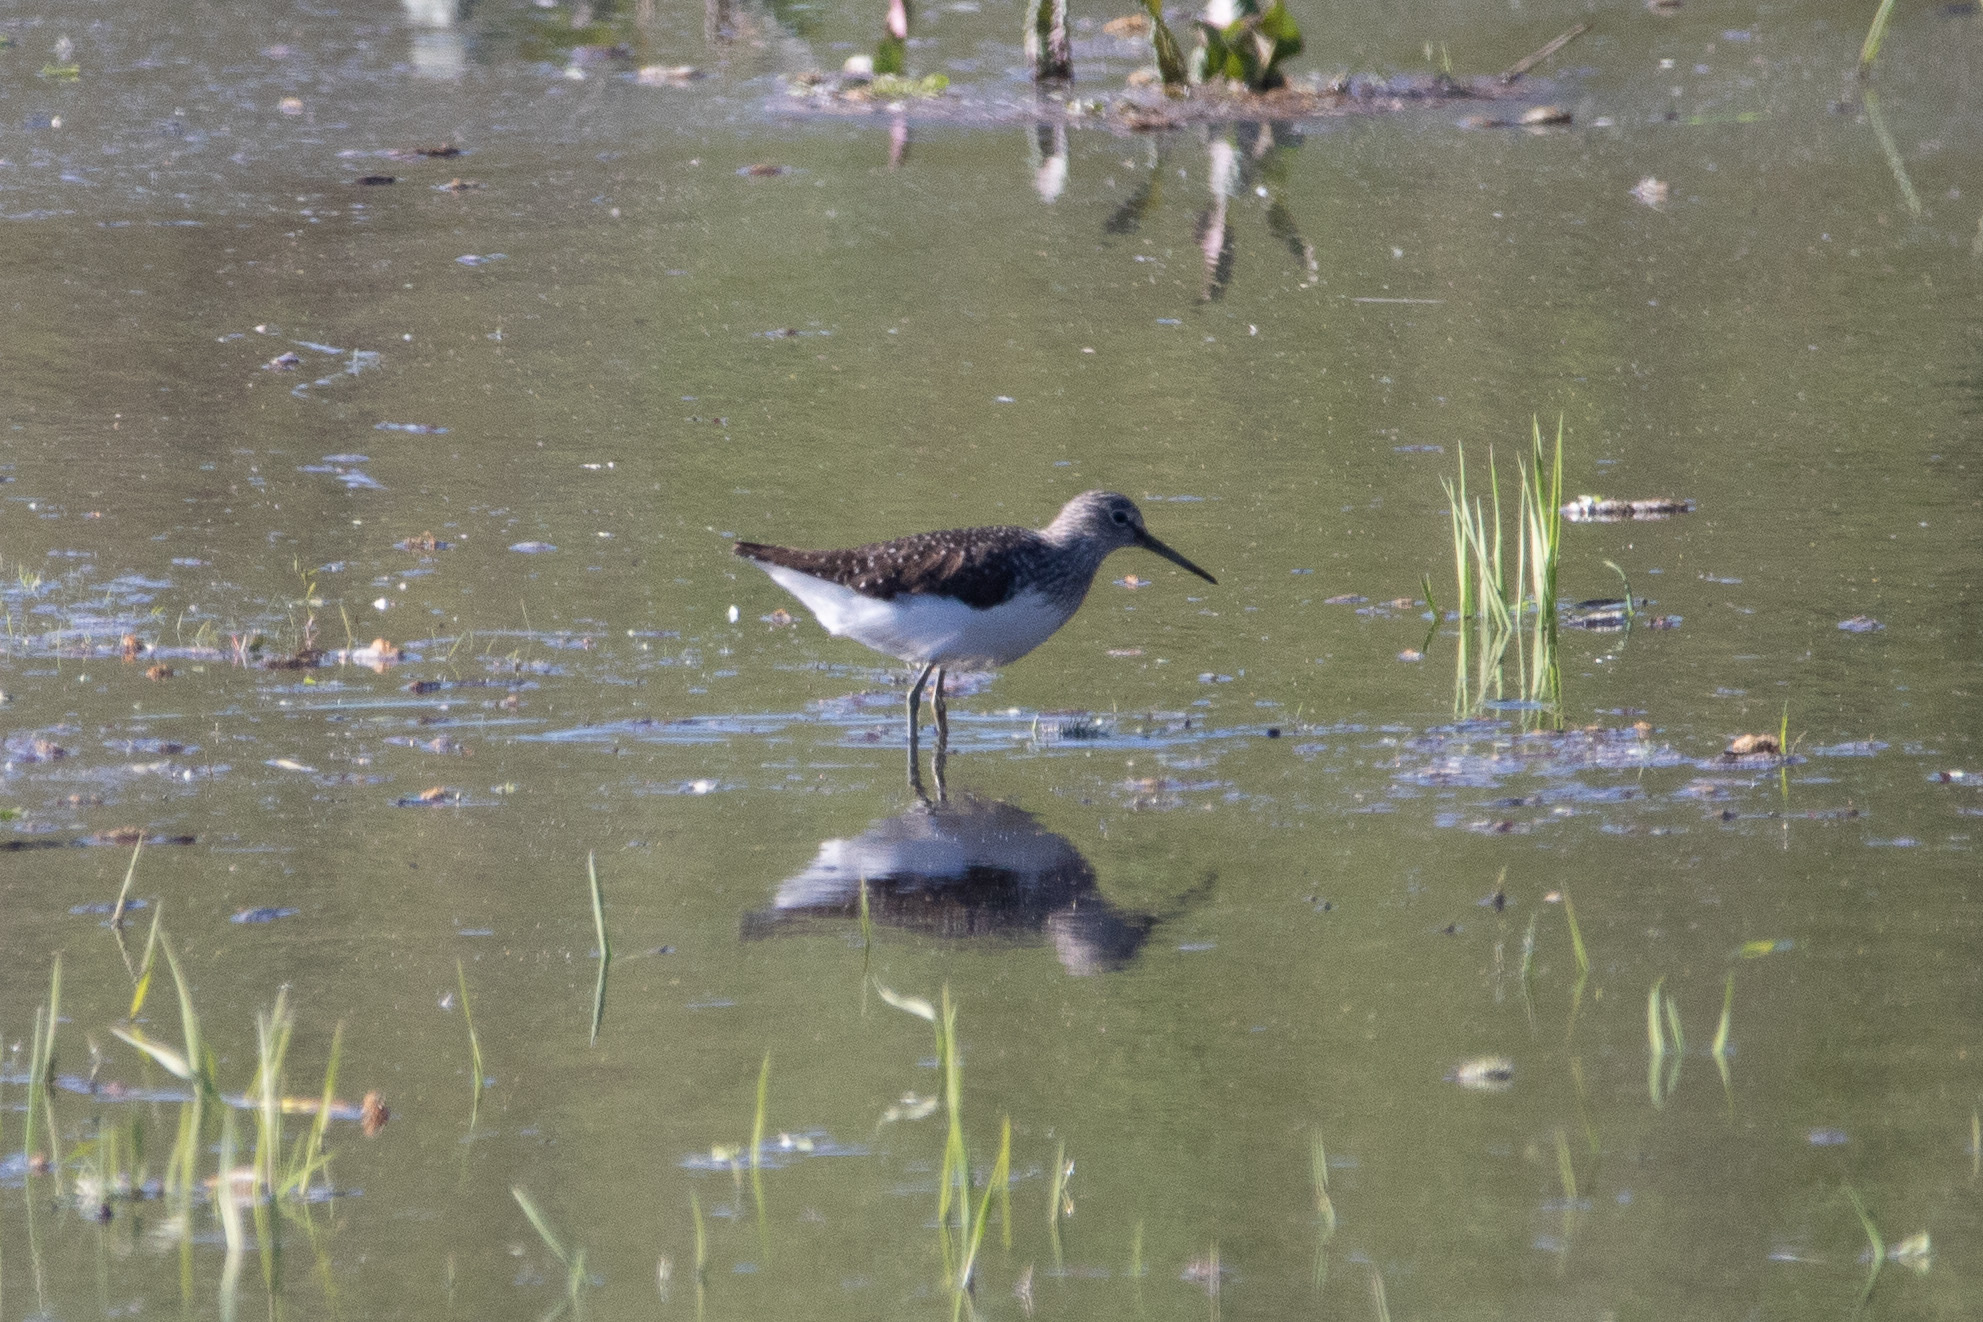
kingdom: Animalia
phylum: Chordata
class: Aves
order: Charadriiformes
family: Scolopacidae
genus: Tringa
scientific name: Tringa ochropus
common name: Green sandpiper
